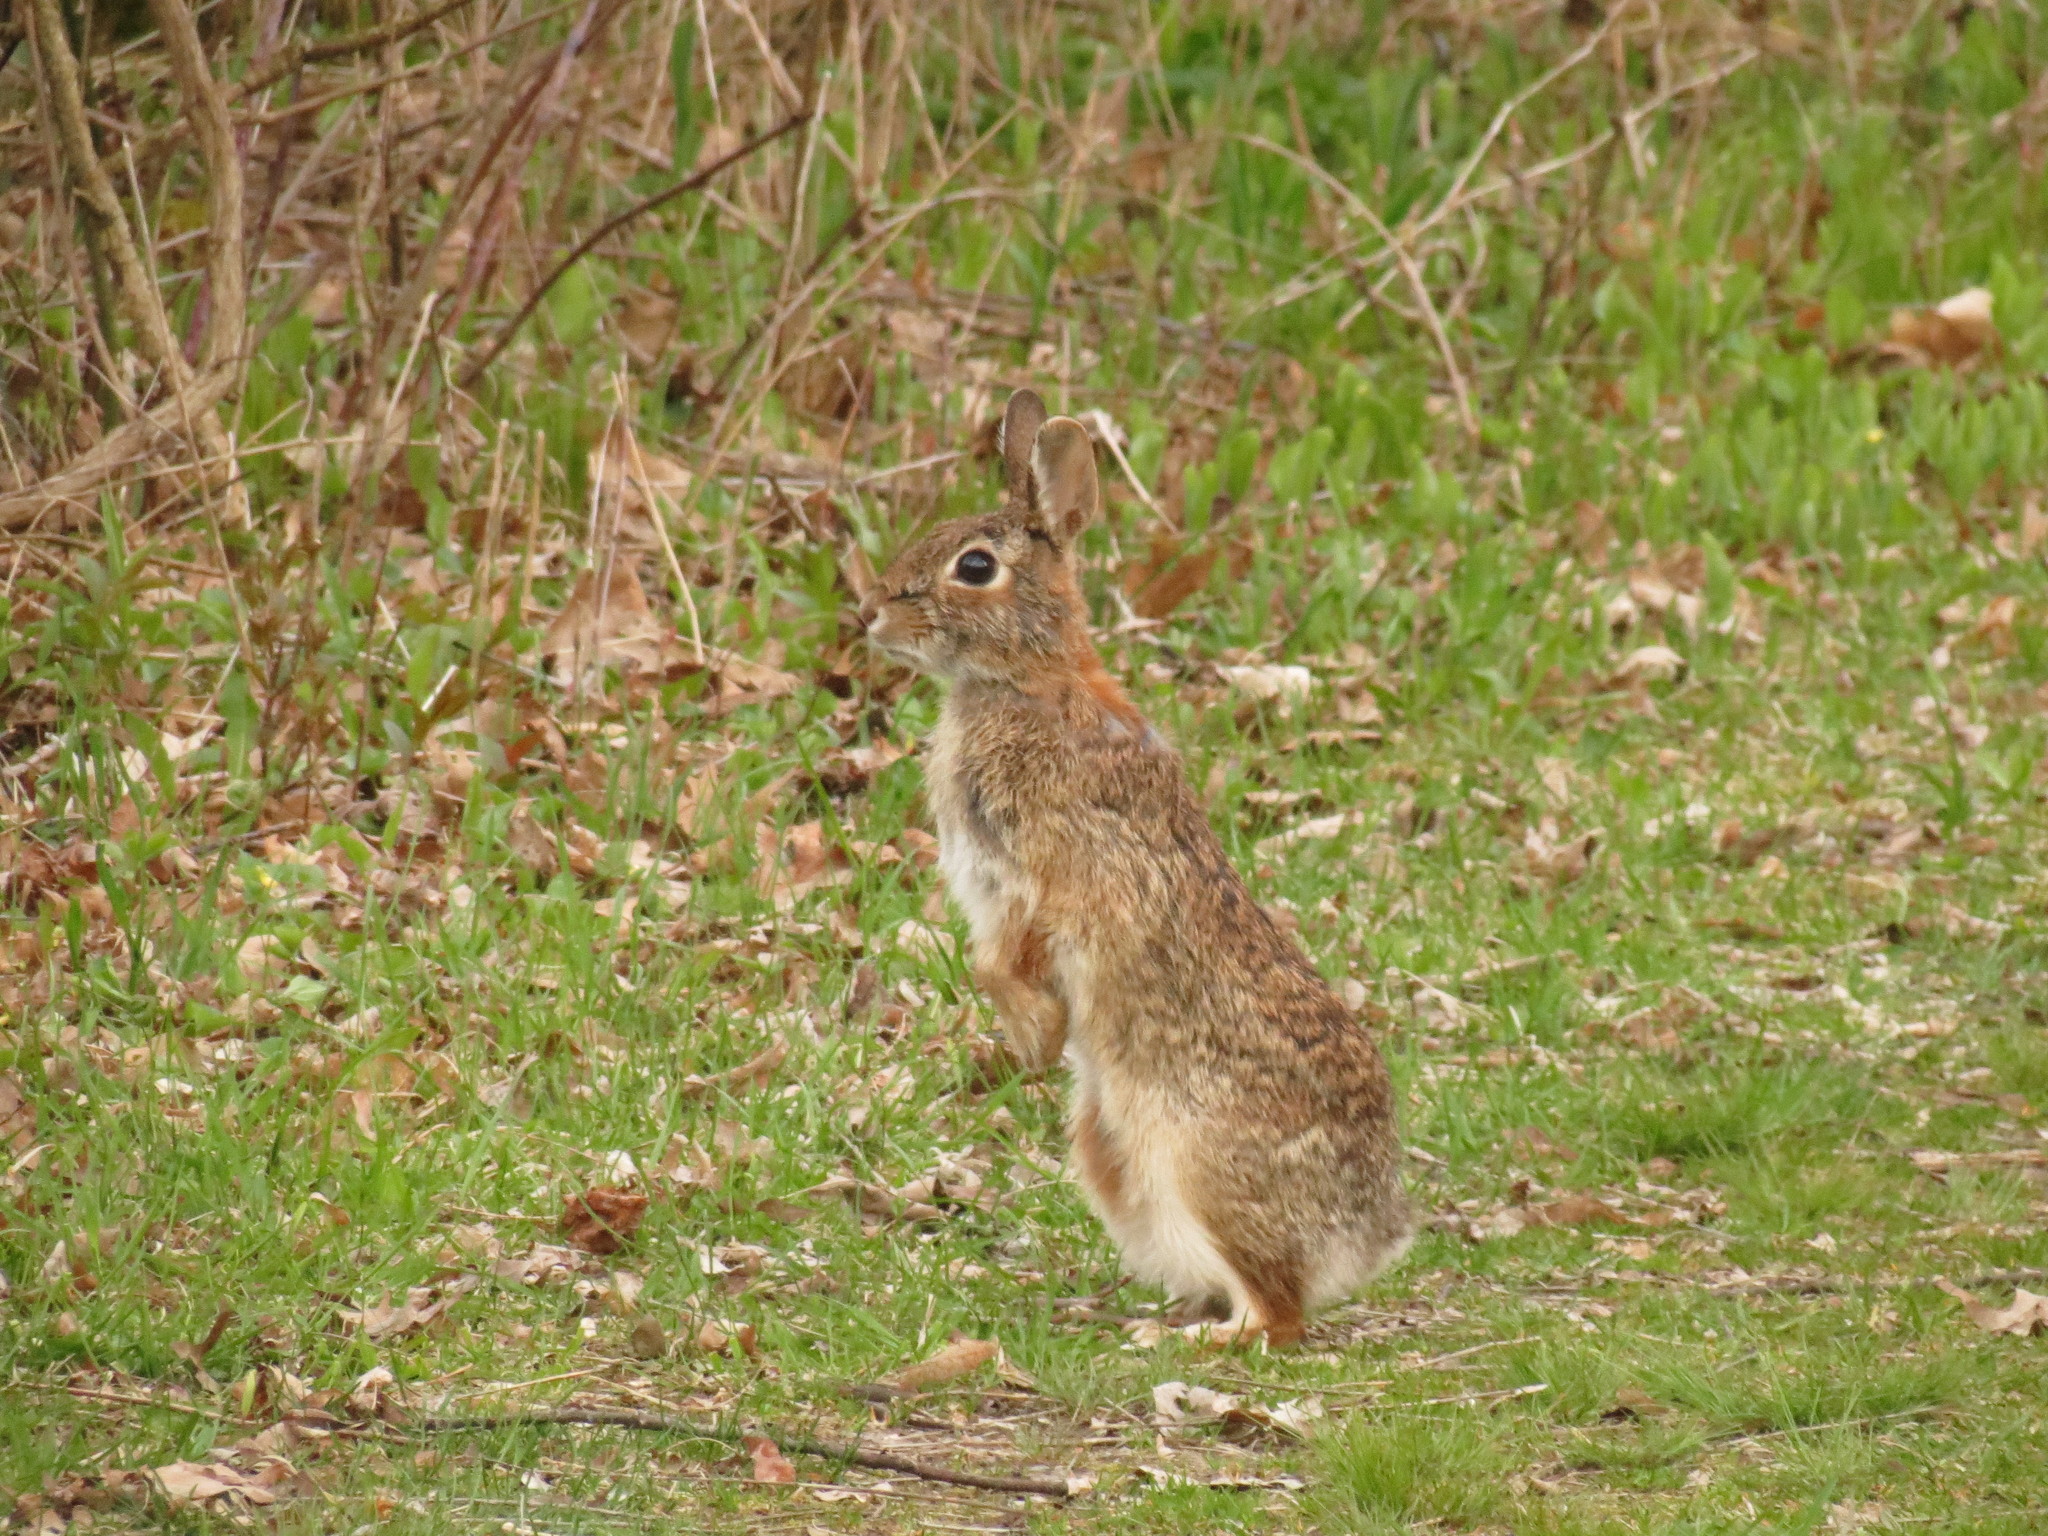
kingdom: Animalia
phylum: Chordata
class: Mammalia
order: Lagomorpha
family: Leporidae
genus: Sylvilagus
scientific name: Sylvilagus floridanus
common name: Eastern cottontail
